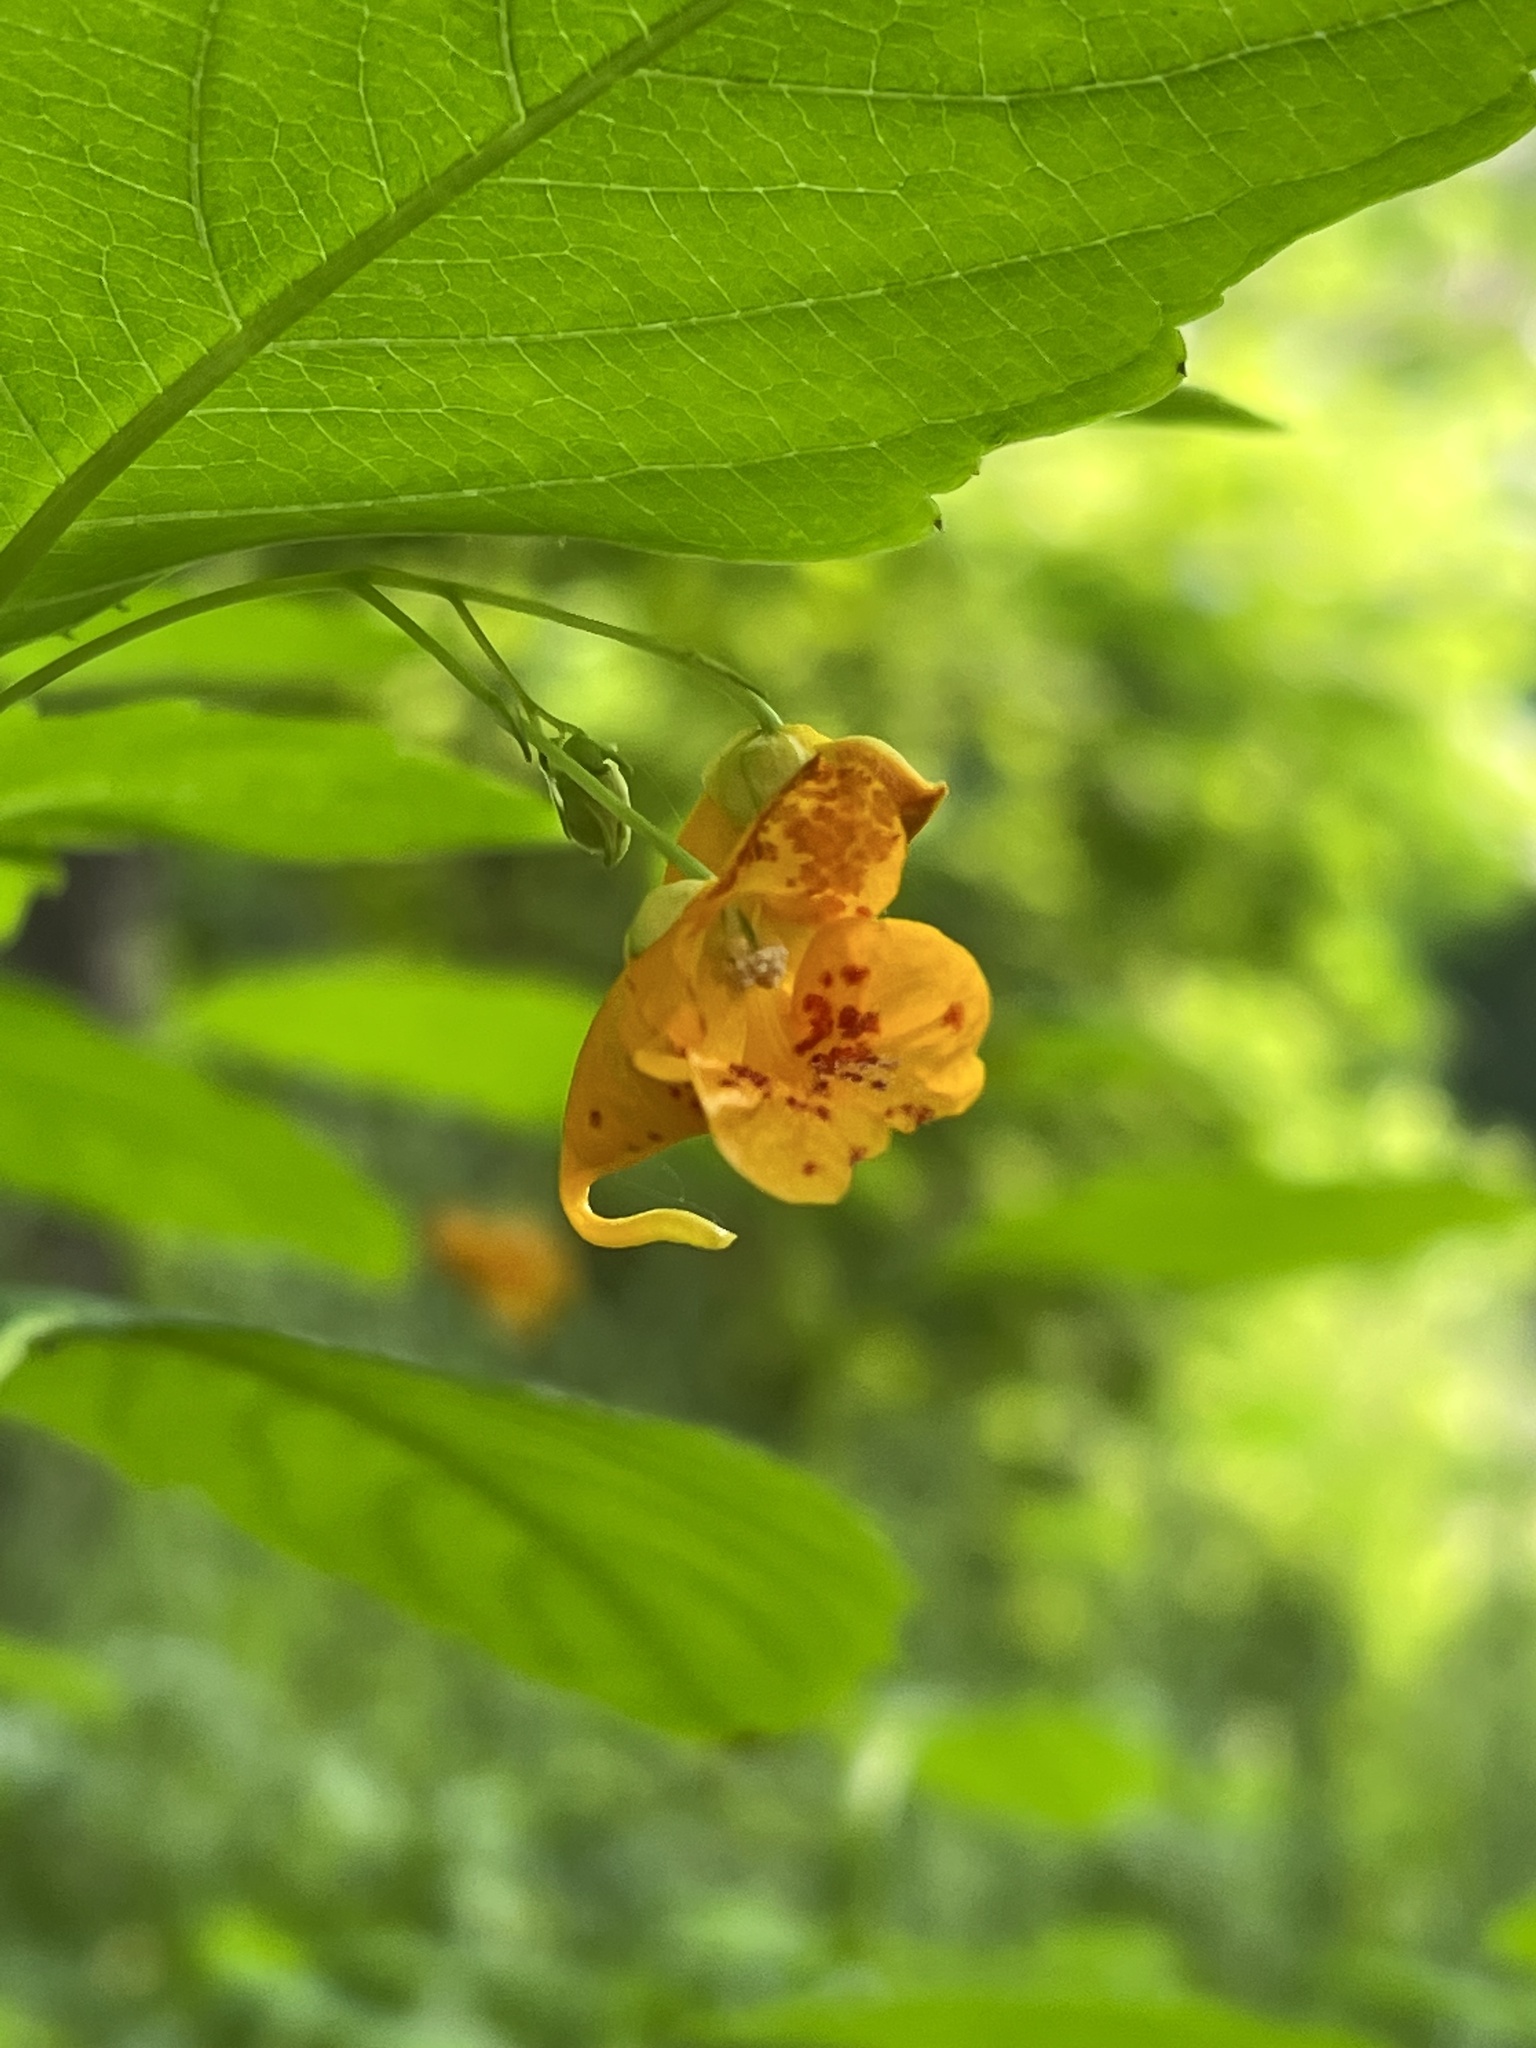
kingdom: Plantae
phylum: Tracheophyta
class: Magnoliopsida
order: Ericales
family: Balsaminaceae
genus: Impatiens
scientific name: Impatiens capensis
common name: Orange balsam
